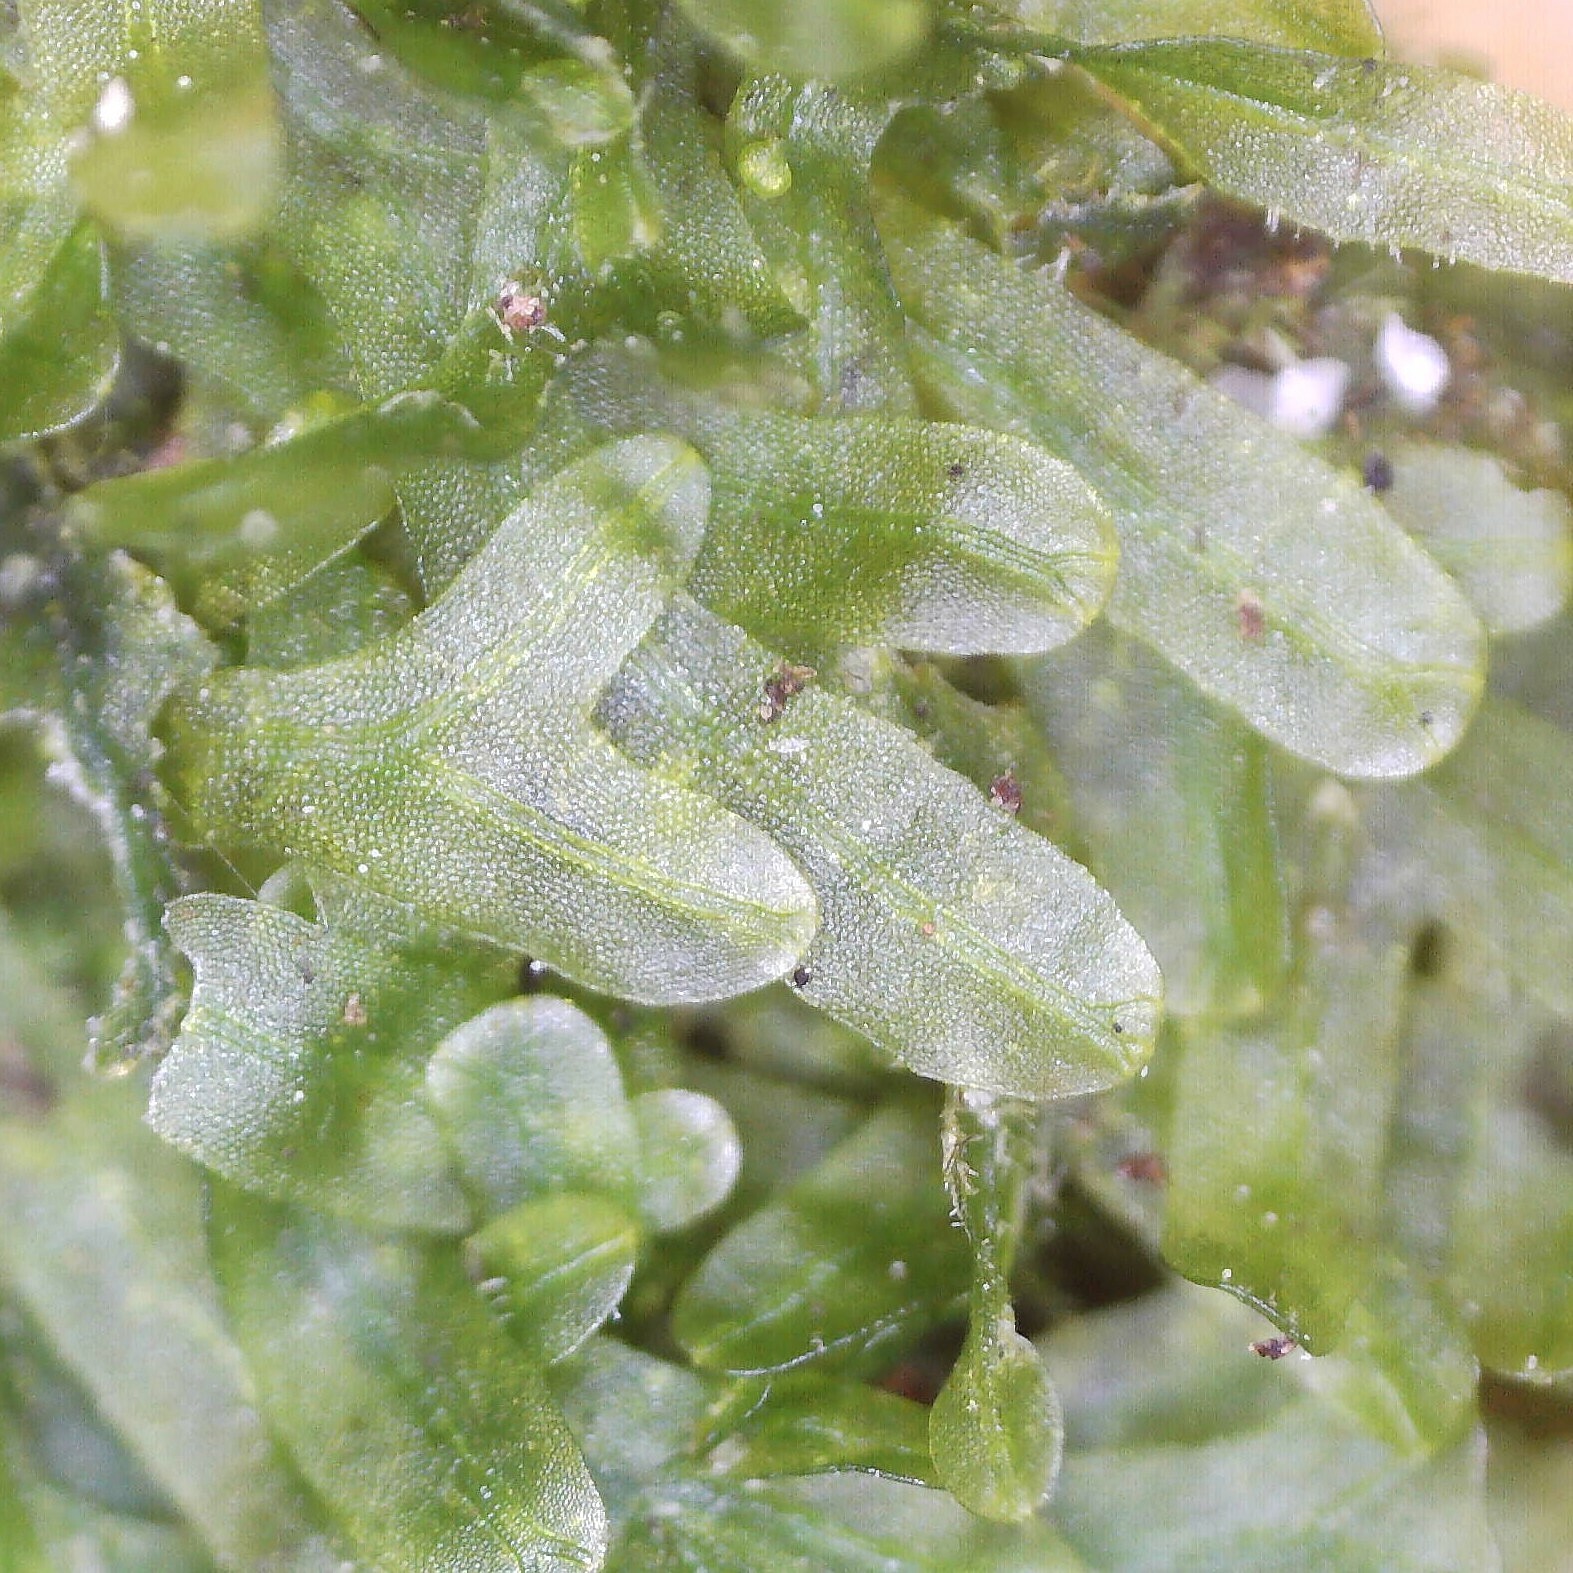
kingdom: Plantae
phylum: Marchantiophyta
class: Jungermanniopsida
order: Metzgeriales
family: Metzgeriaceae
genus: Metzgeria
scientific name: Metzgeria furcata
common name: Forked veilwort
